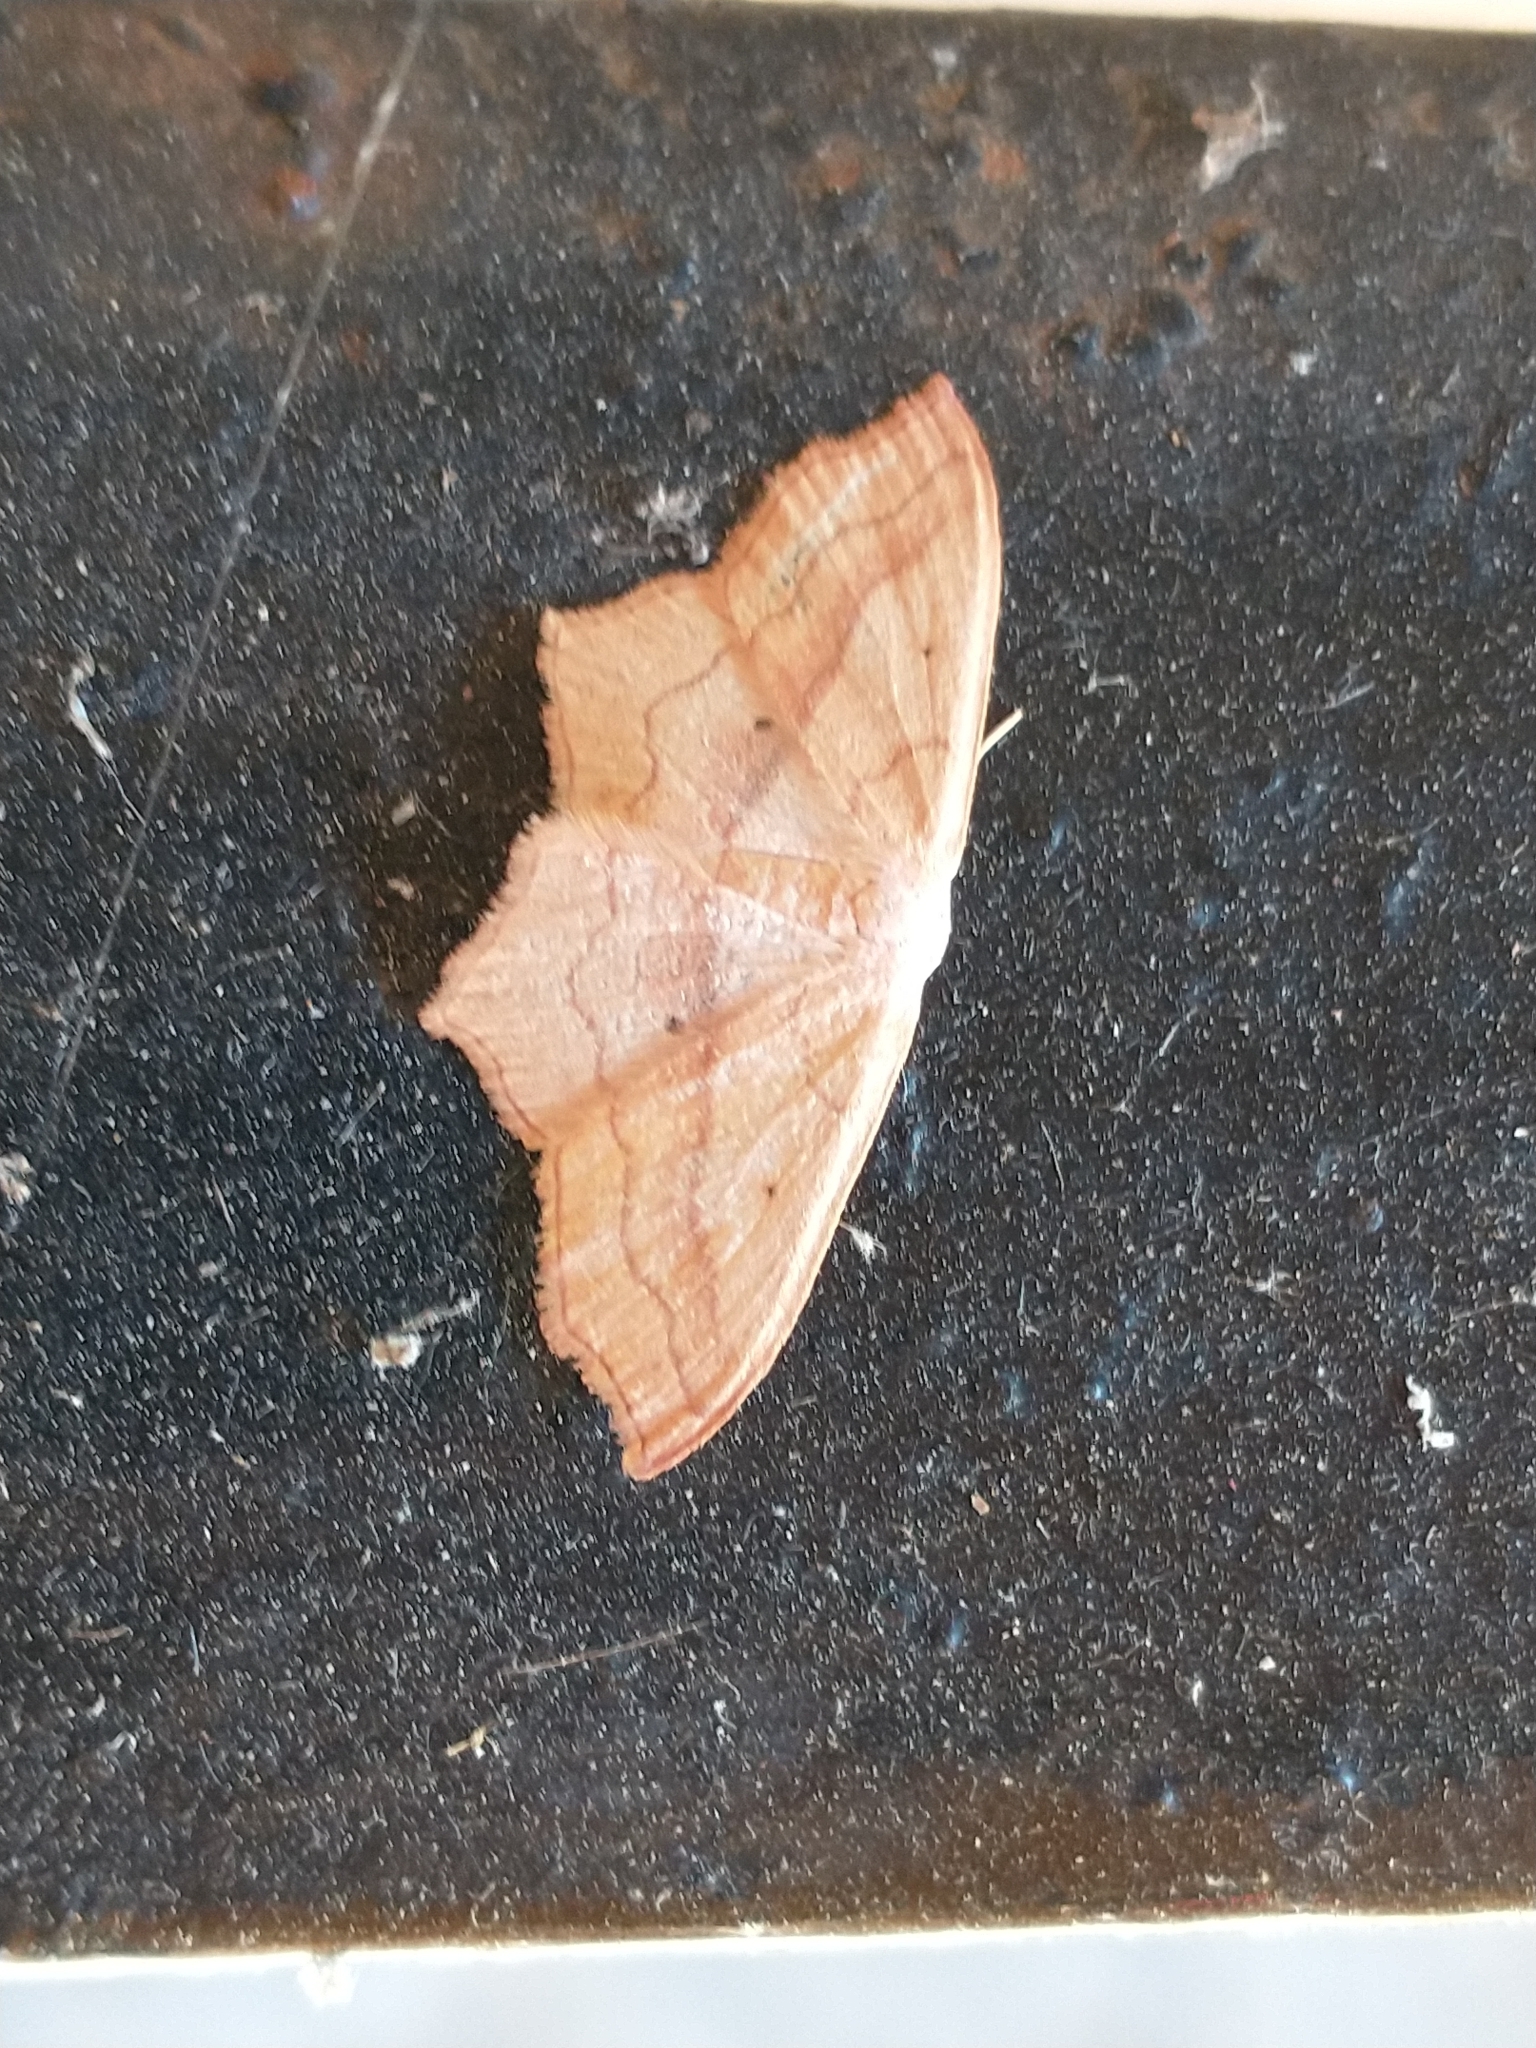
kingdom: Animalia
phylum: Arthropoda
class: Insecta
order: Lepidoptera
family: Geometridae
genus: Scopula
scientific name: Scopula imitaria
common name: Small blood-vein
